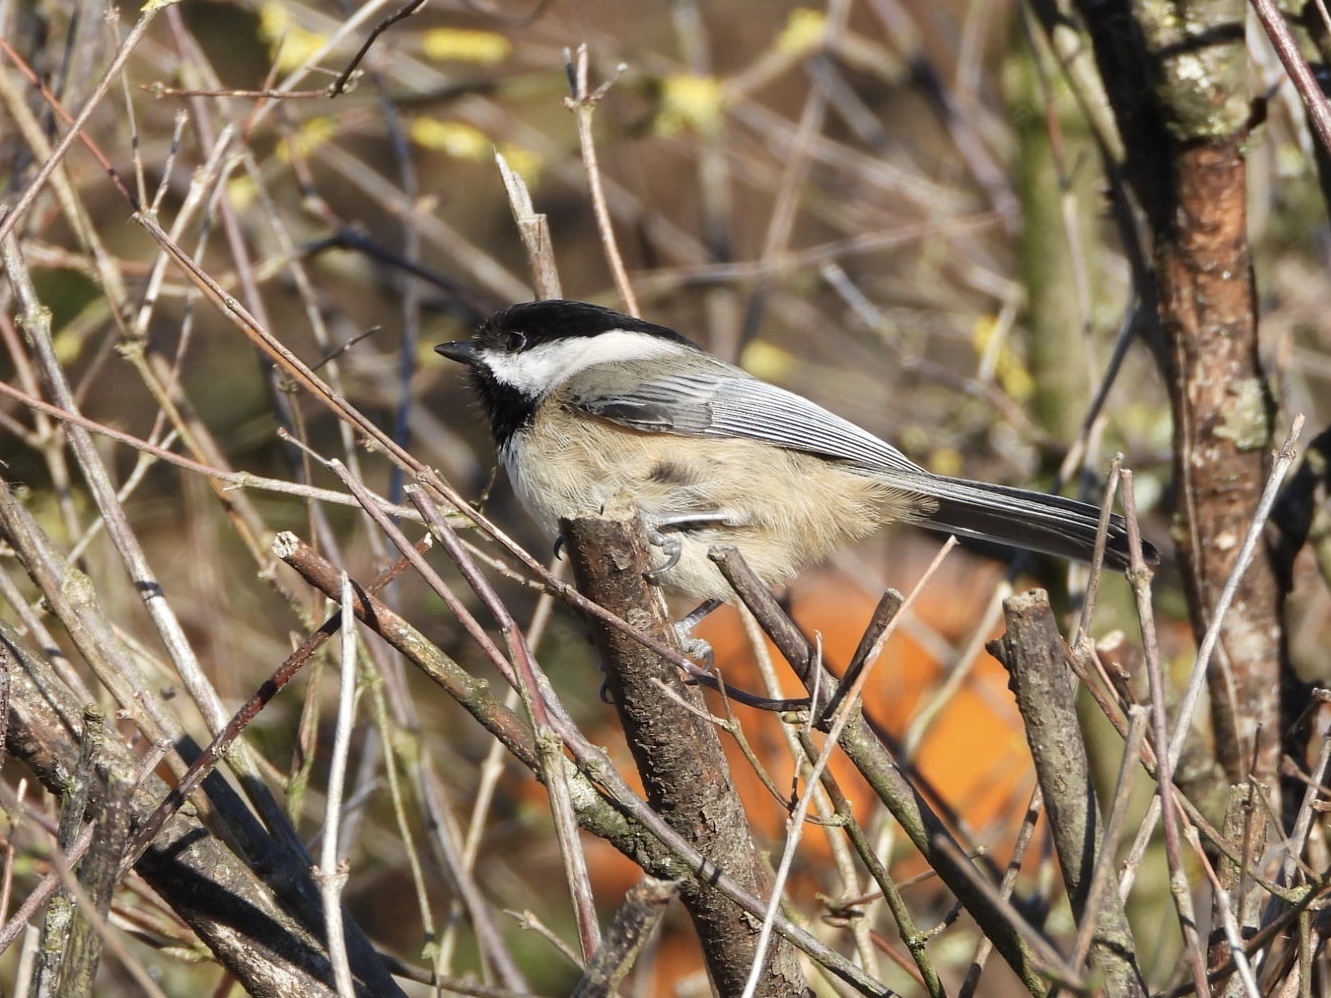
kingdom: Animalia
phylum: Chordata
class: Aves
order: Passeriformes
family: Paridae
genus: Poecile
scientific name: Poecile atricapillus
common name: Black-capped chickadee
